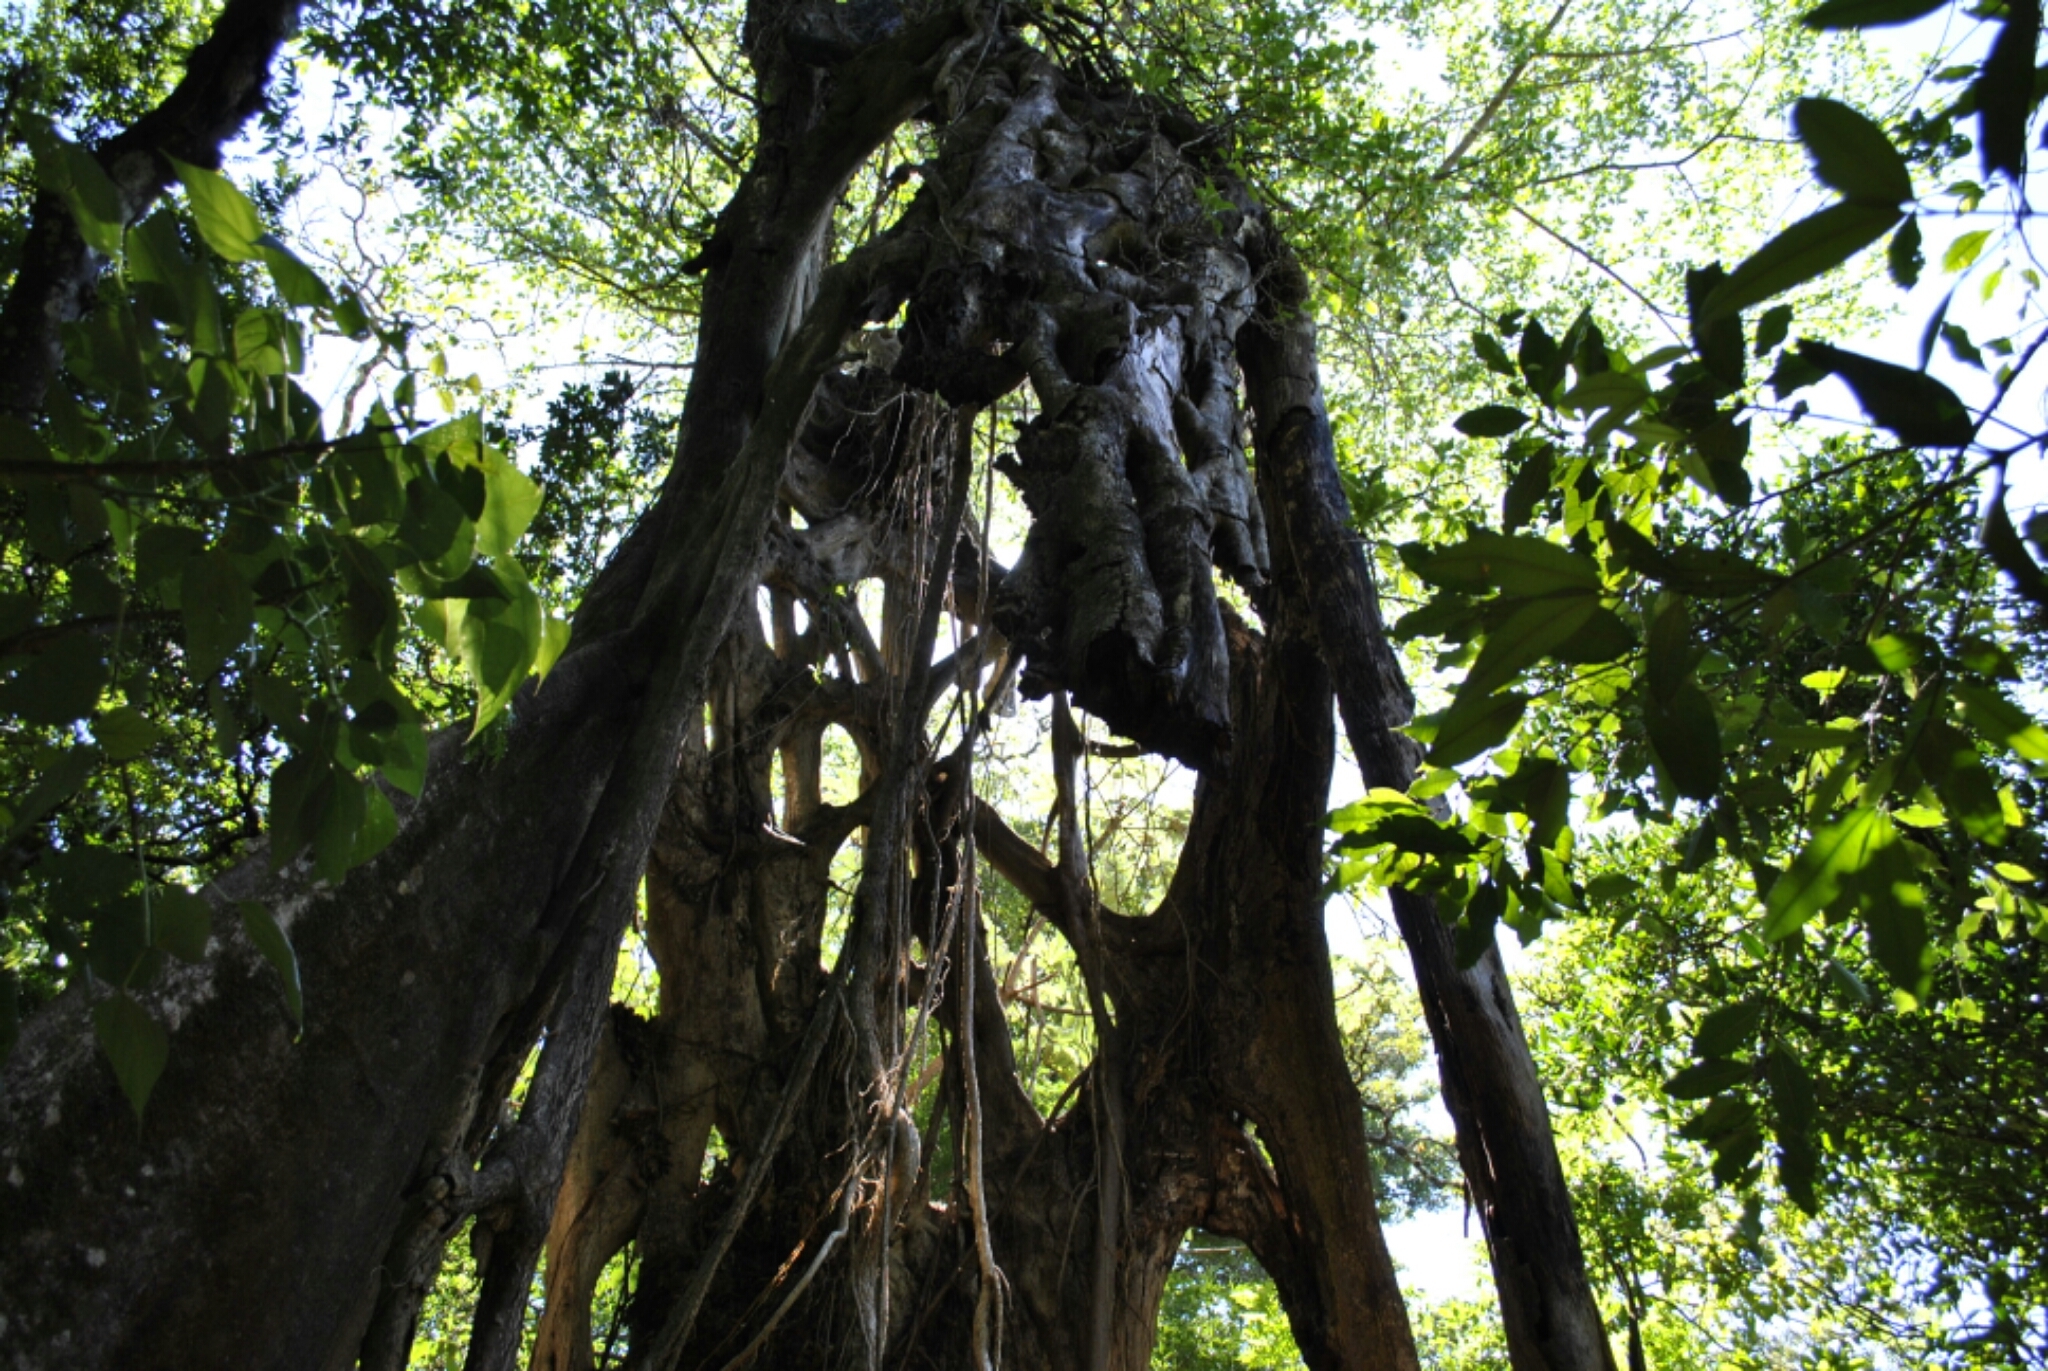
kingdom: Plantae
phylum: Tracheophyta
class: Magnoliopsida
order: Rosales
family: Moraceae
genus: Ficus
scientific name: Ficus aurea
